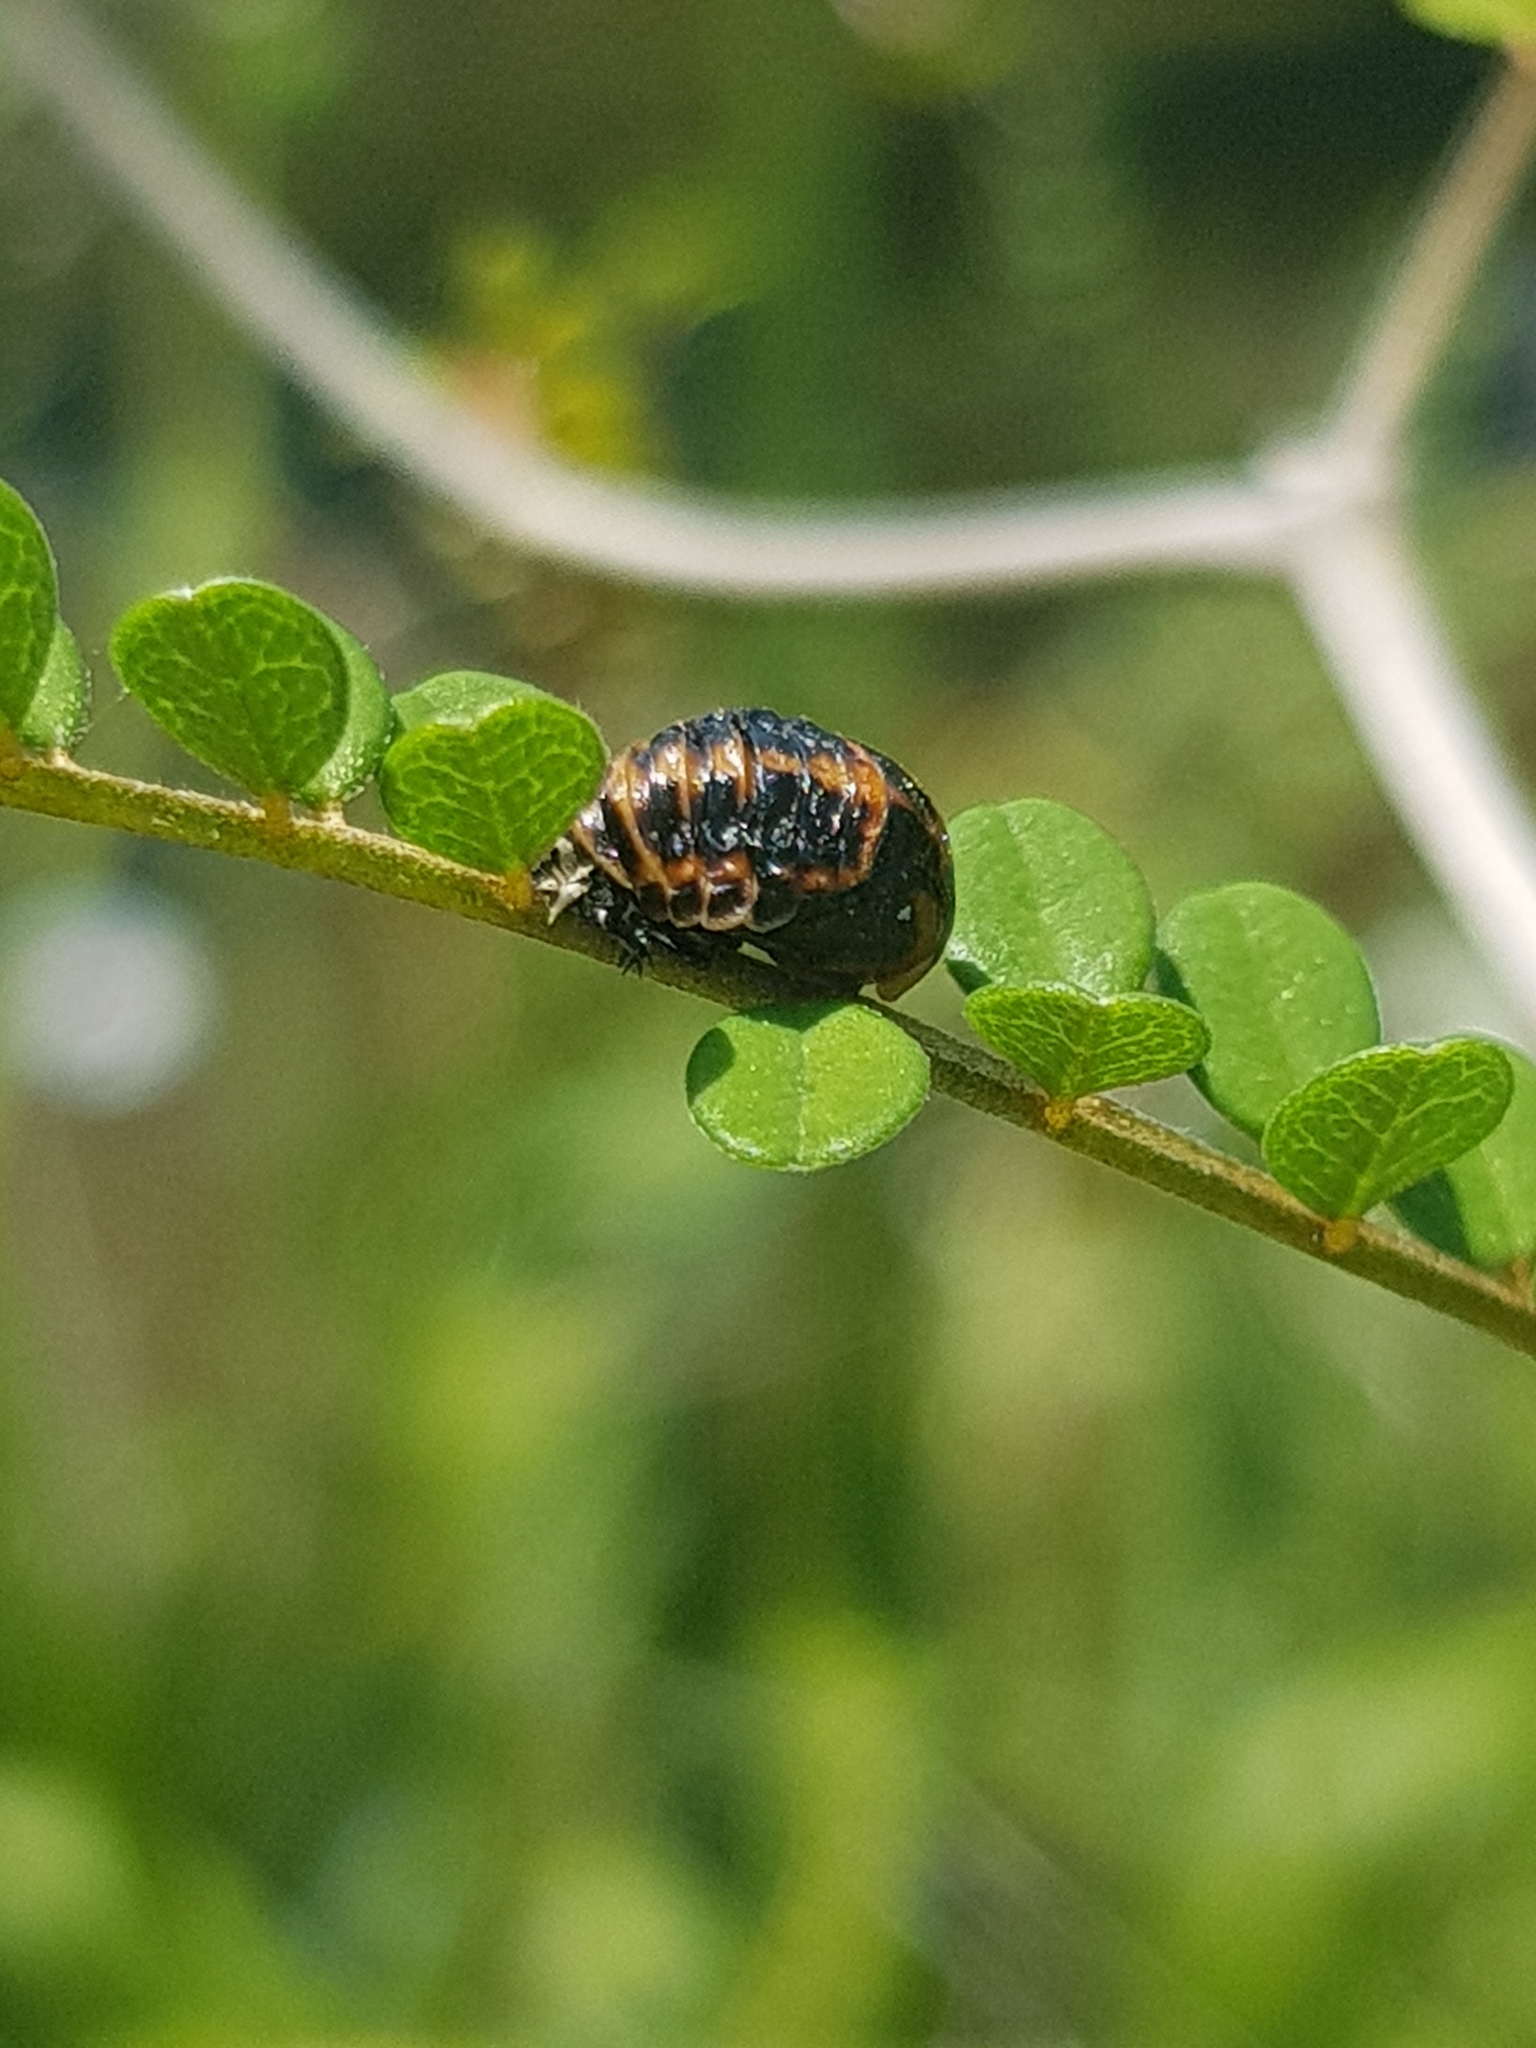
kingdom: Animalia
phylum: Arthropoda
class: Insecta
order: Coleoptera
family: Coccinellidae
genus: Harmonia
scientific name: Harmonia axyridis
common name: Harlequin ladybird
